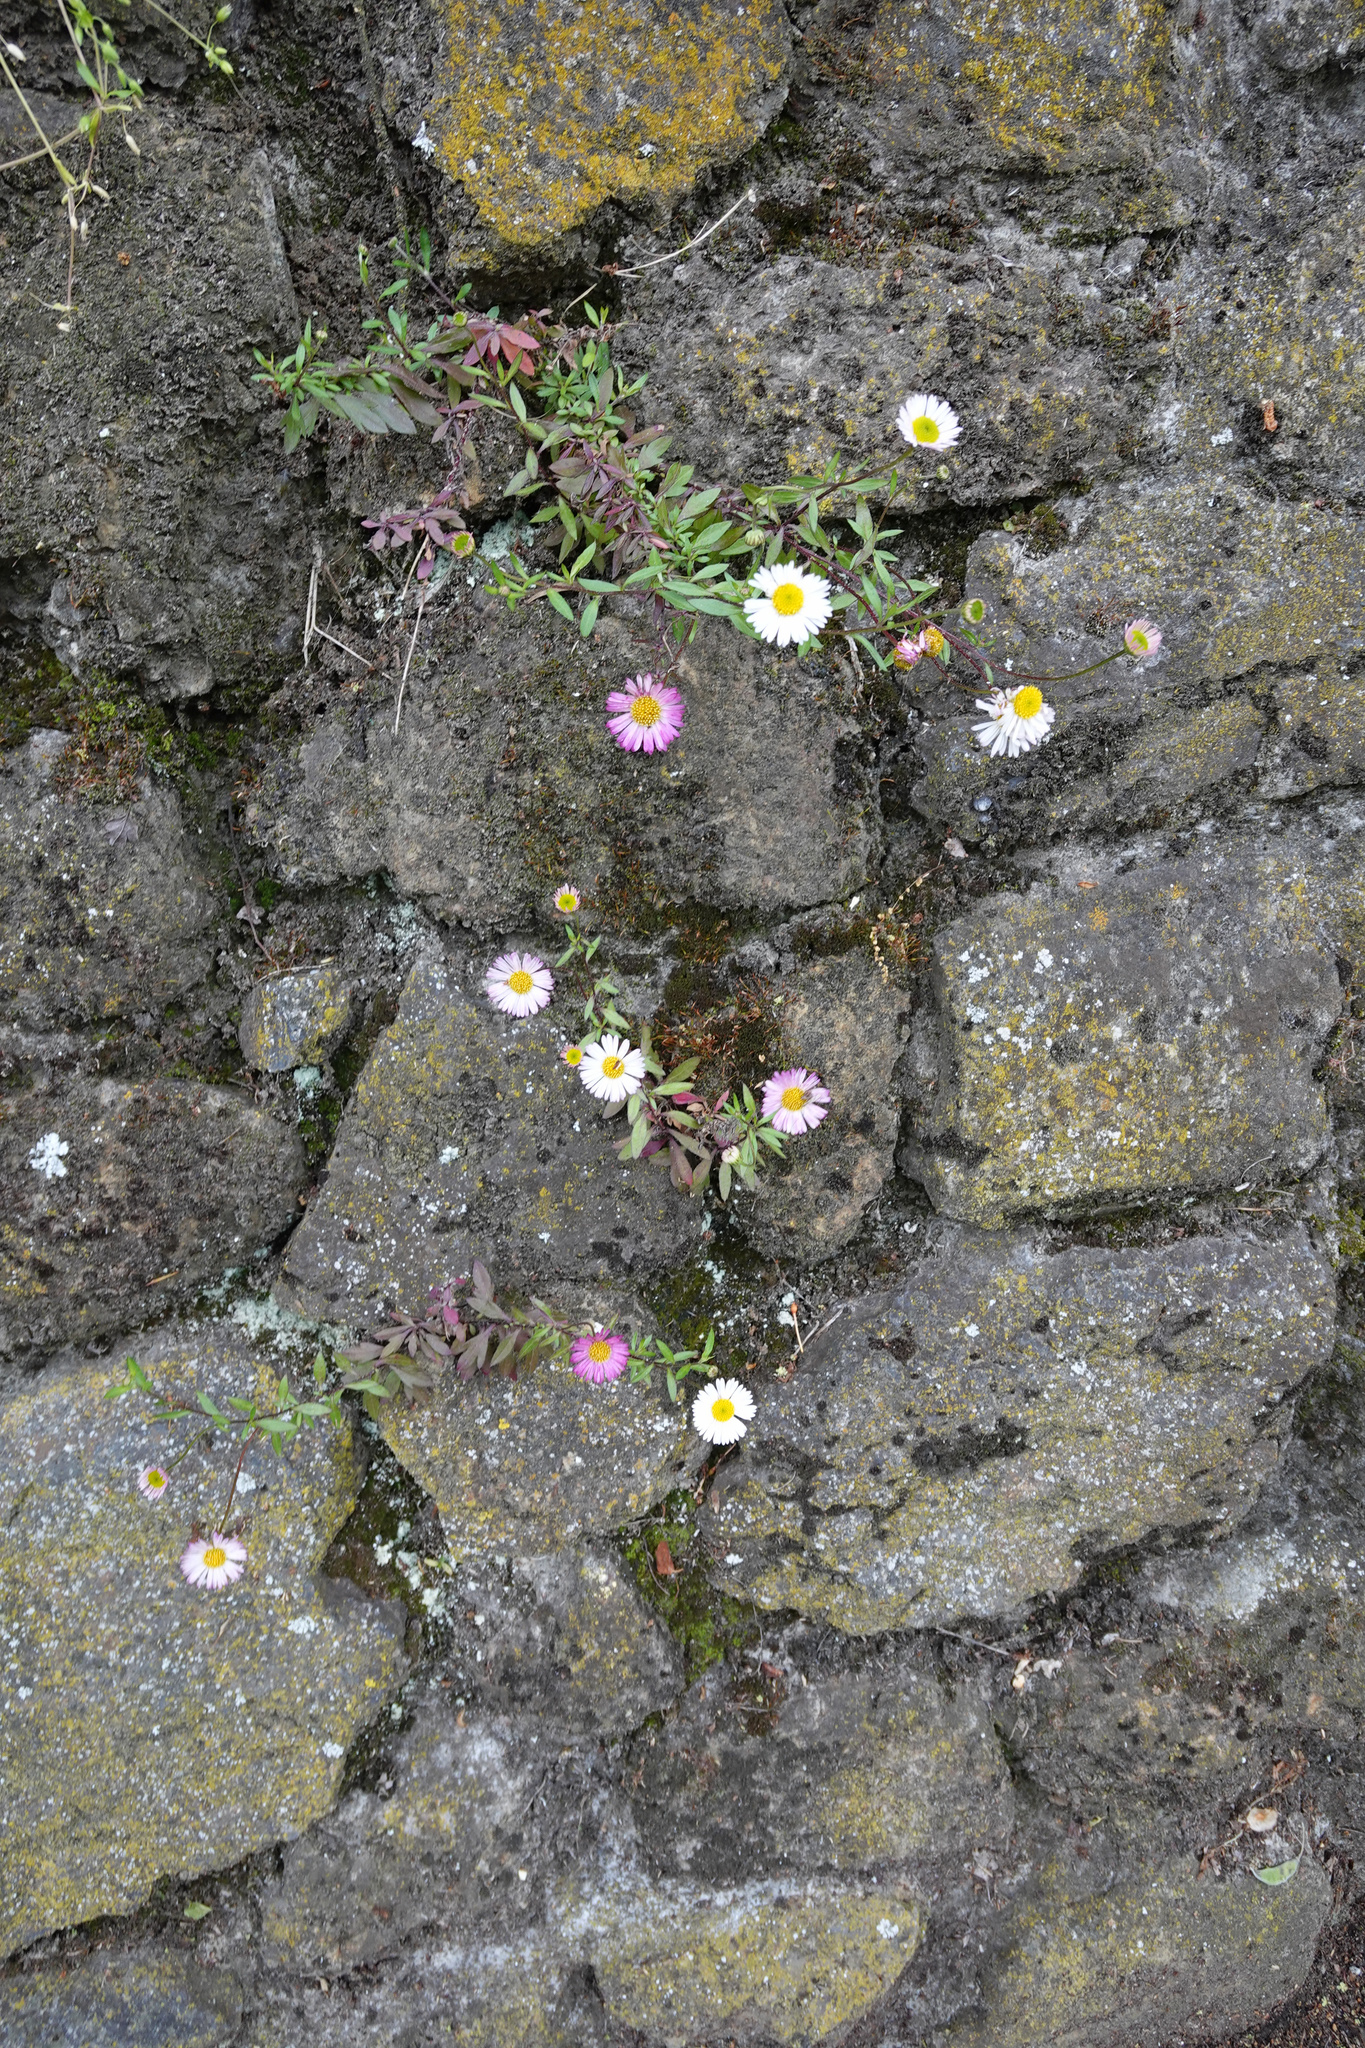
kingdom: Plantae
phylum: Tracheophyta
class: Magnoliopsida
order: Asterales
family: Asteraceae
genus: Erigeron
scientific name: Erigeron karvinskianus
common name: Mexican fleabane
